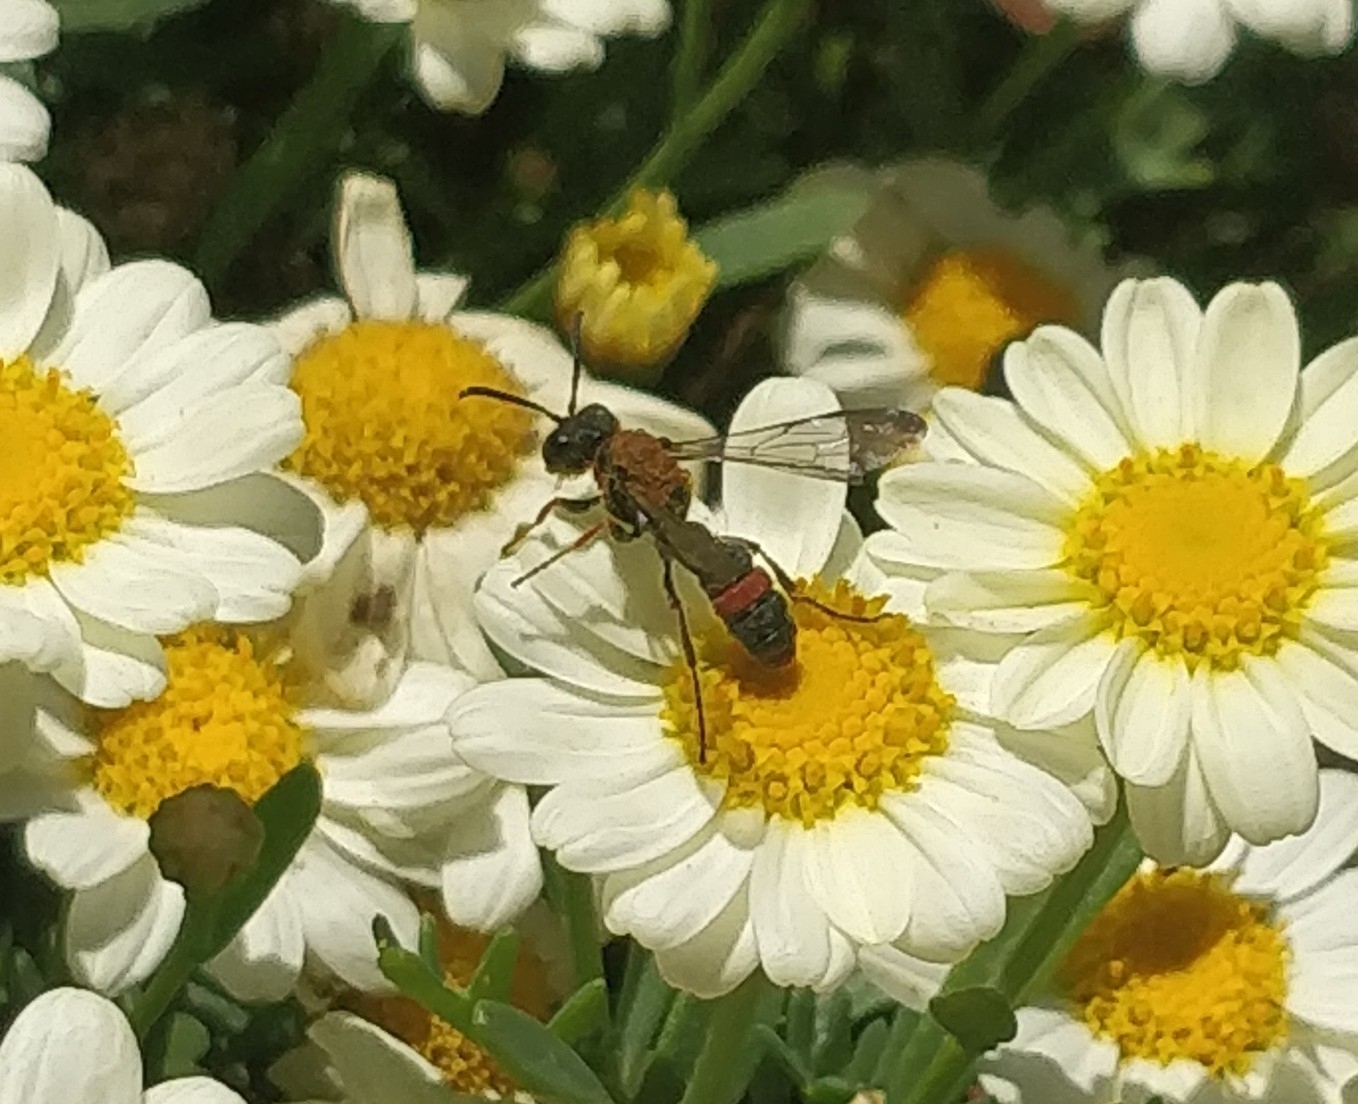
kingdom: Animalia
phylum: Arthropoda
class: Insecta
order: Hymenoptera
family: Crabronidae
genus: Cerceris
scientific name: Cerceris concinna
